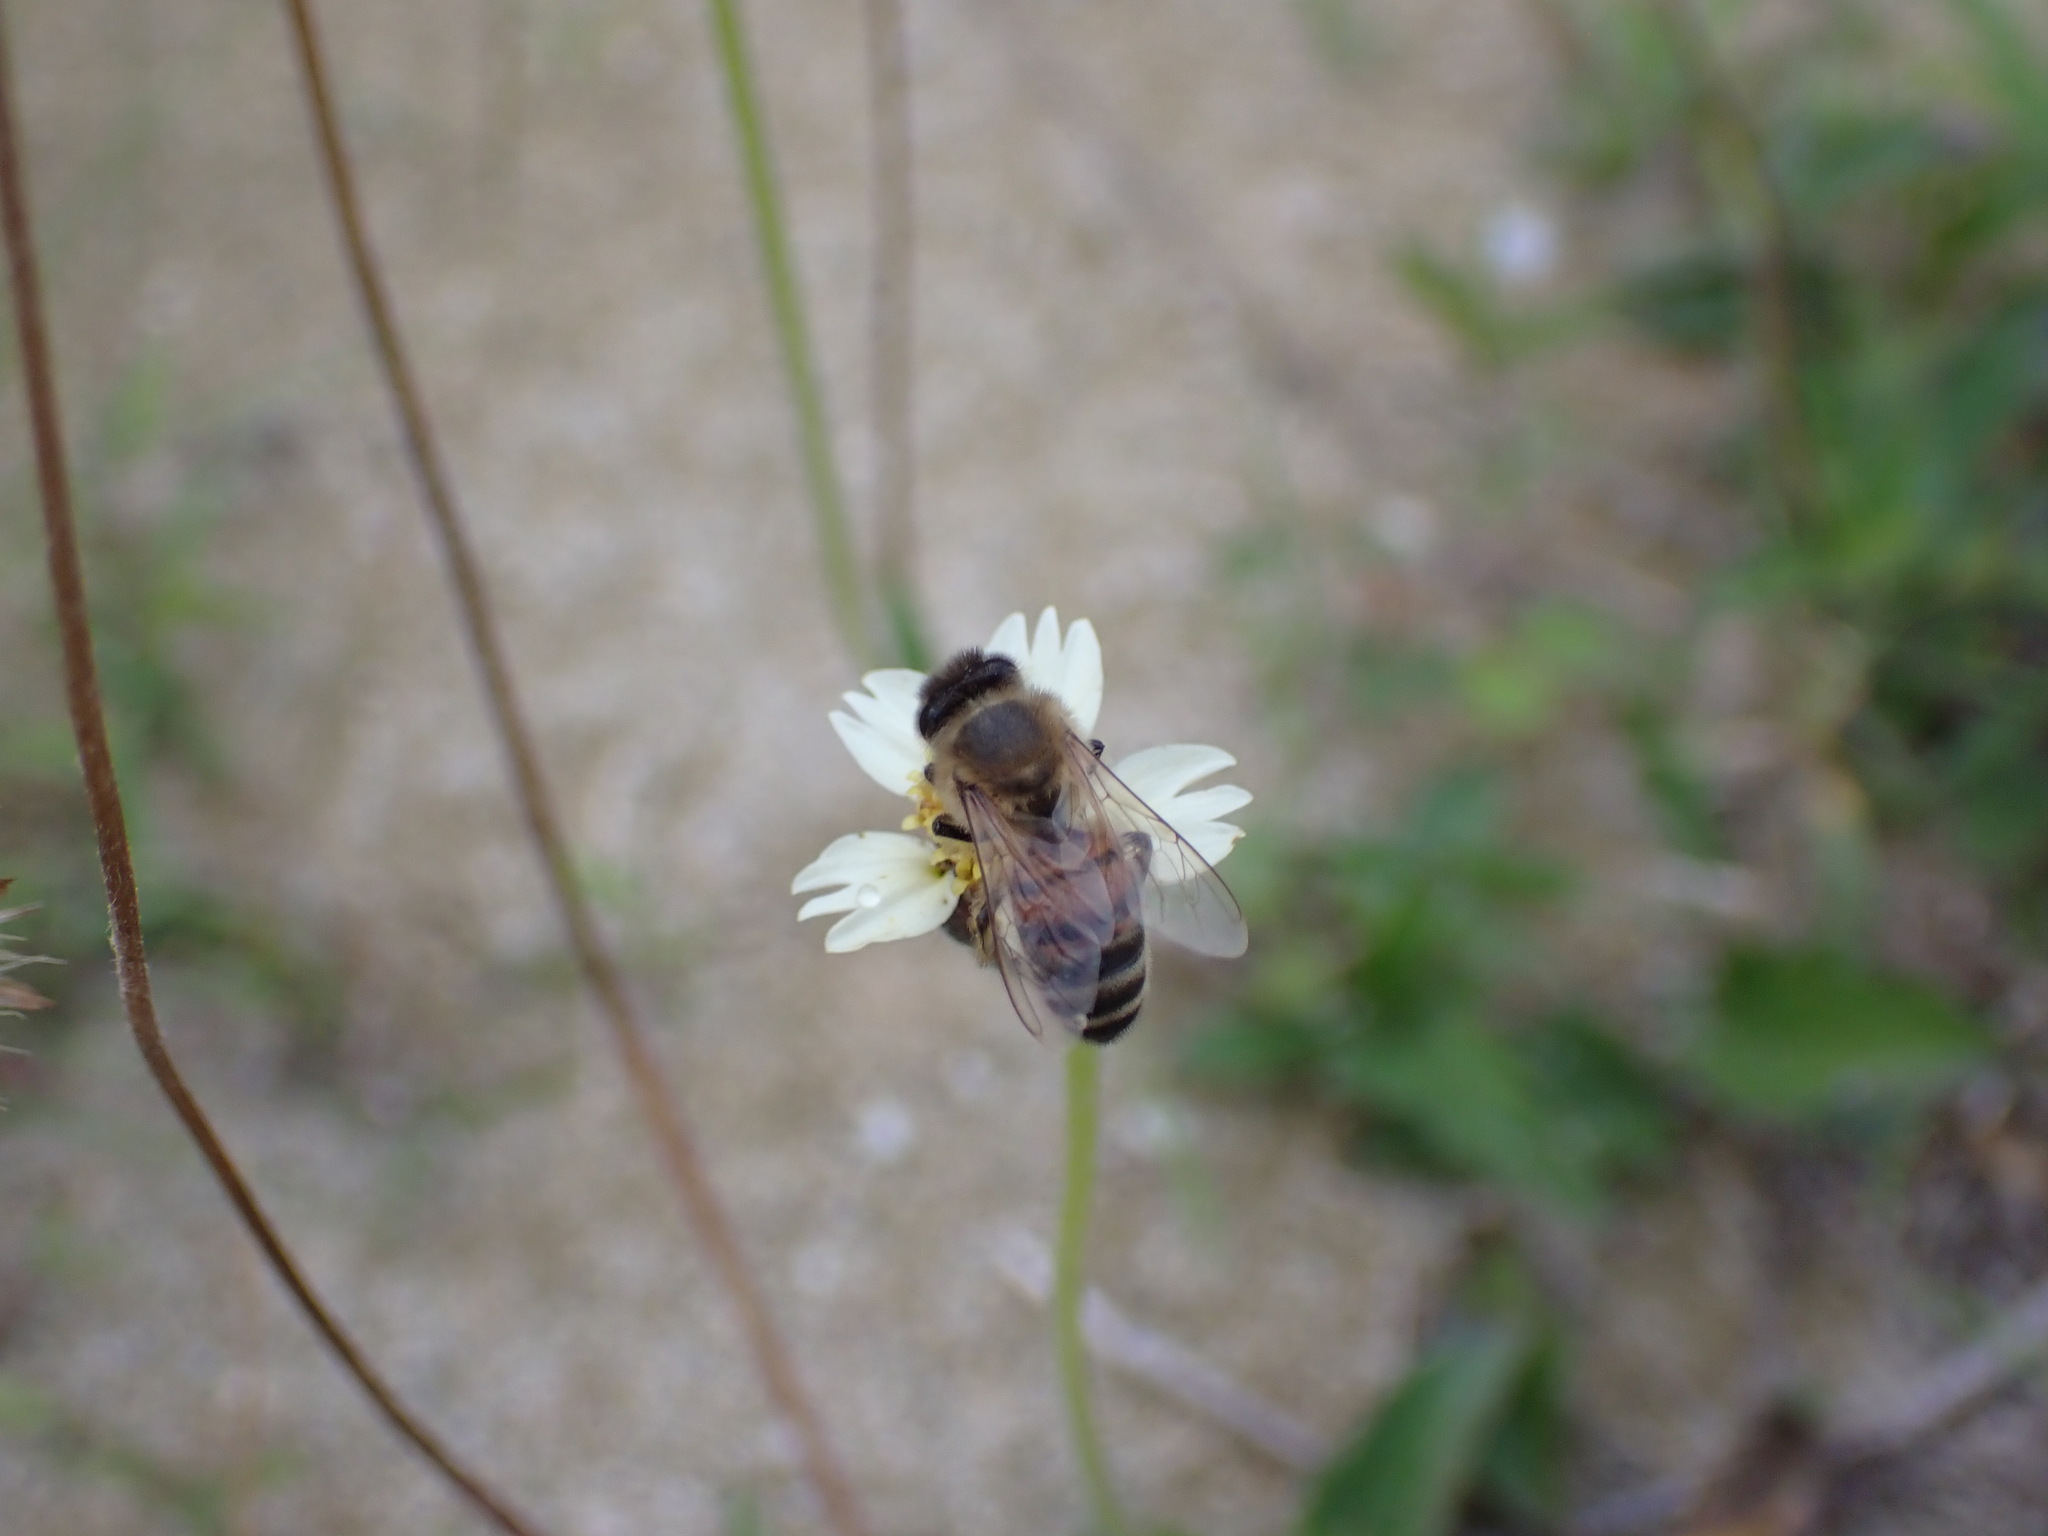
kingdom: Animalia
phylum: Arthropoda
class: Insecta
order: Hymenoptera
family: Apidae
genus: Apis
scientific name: Apis mellifera
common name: Honey bee
